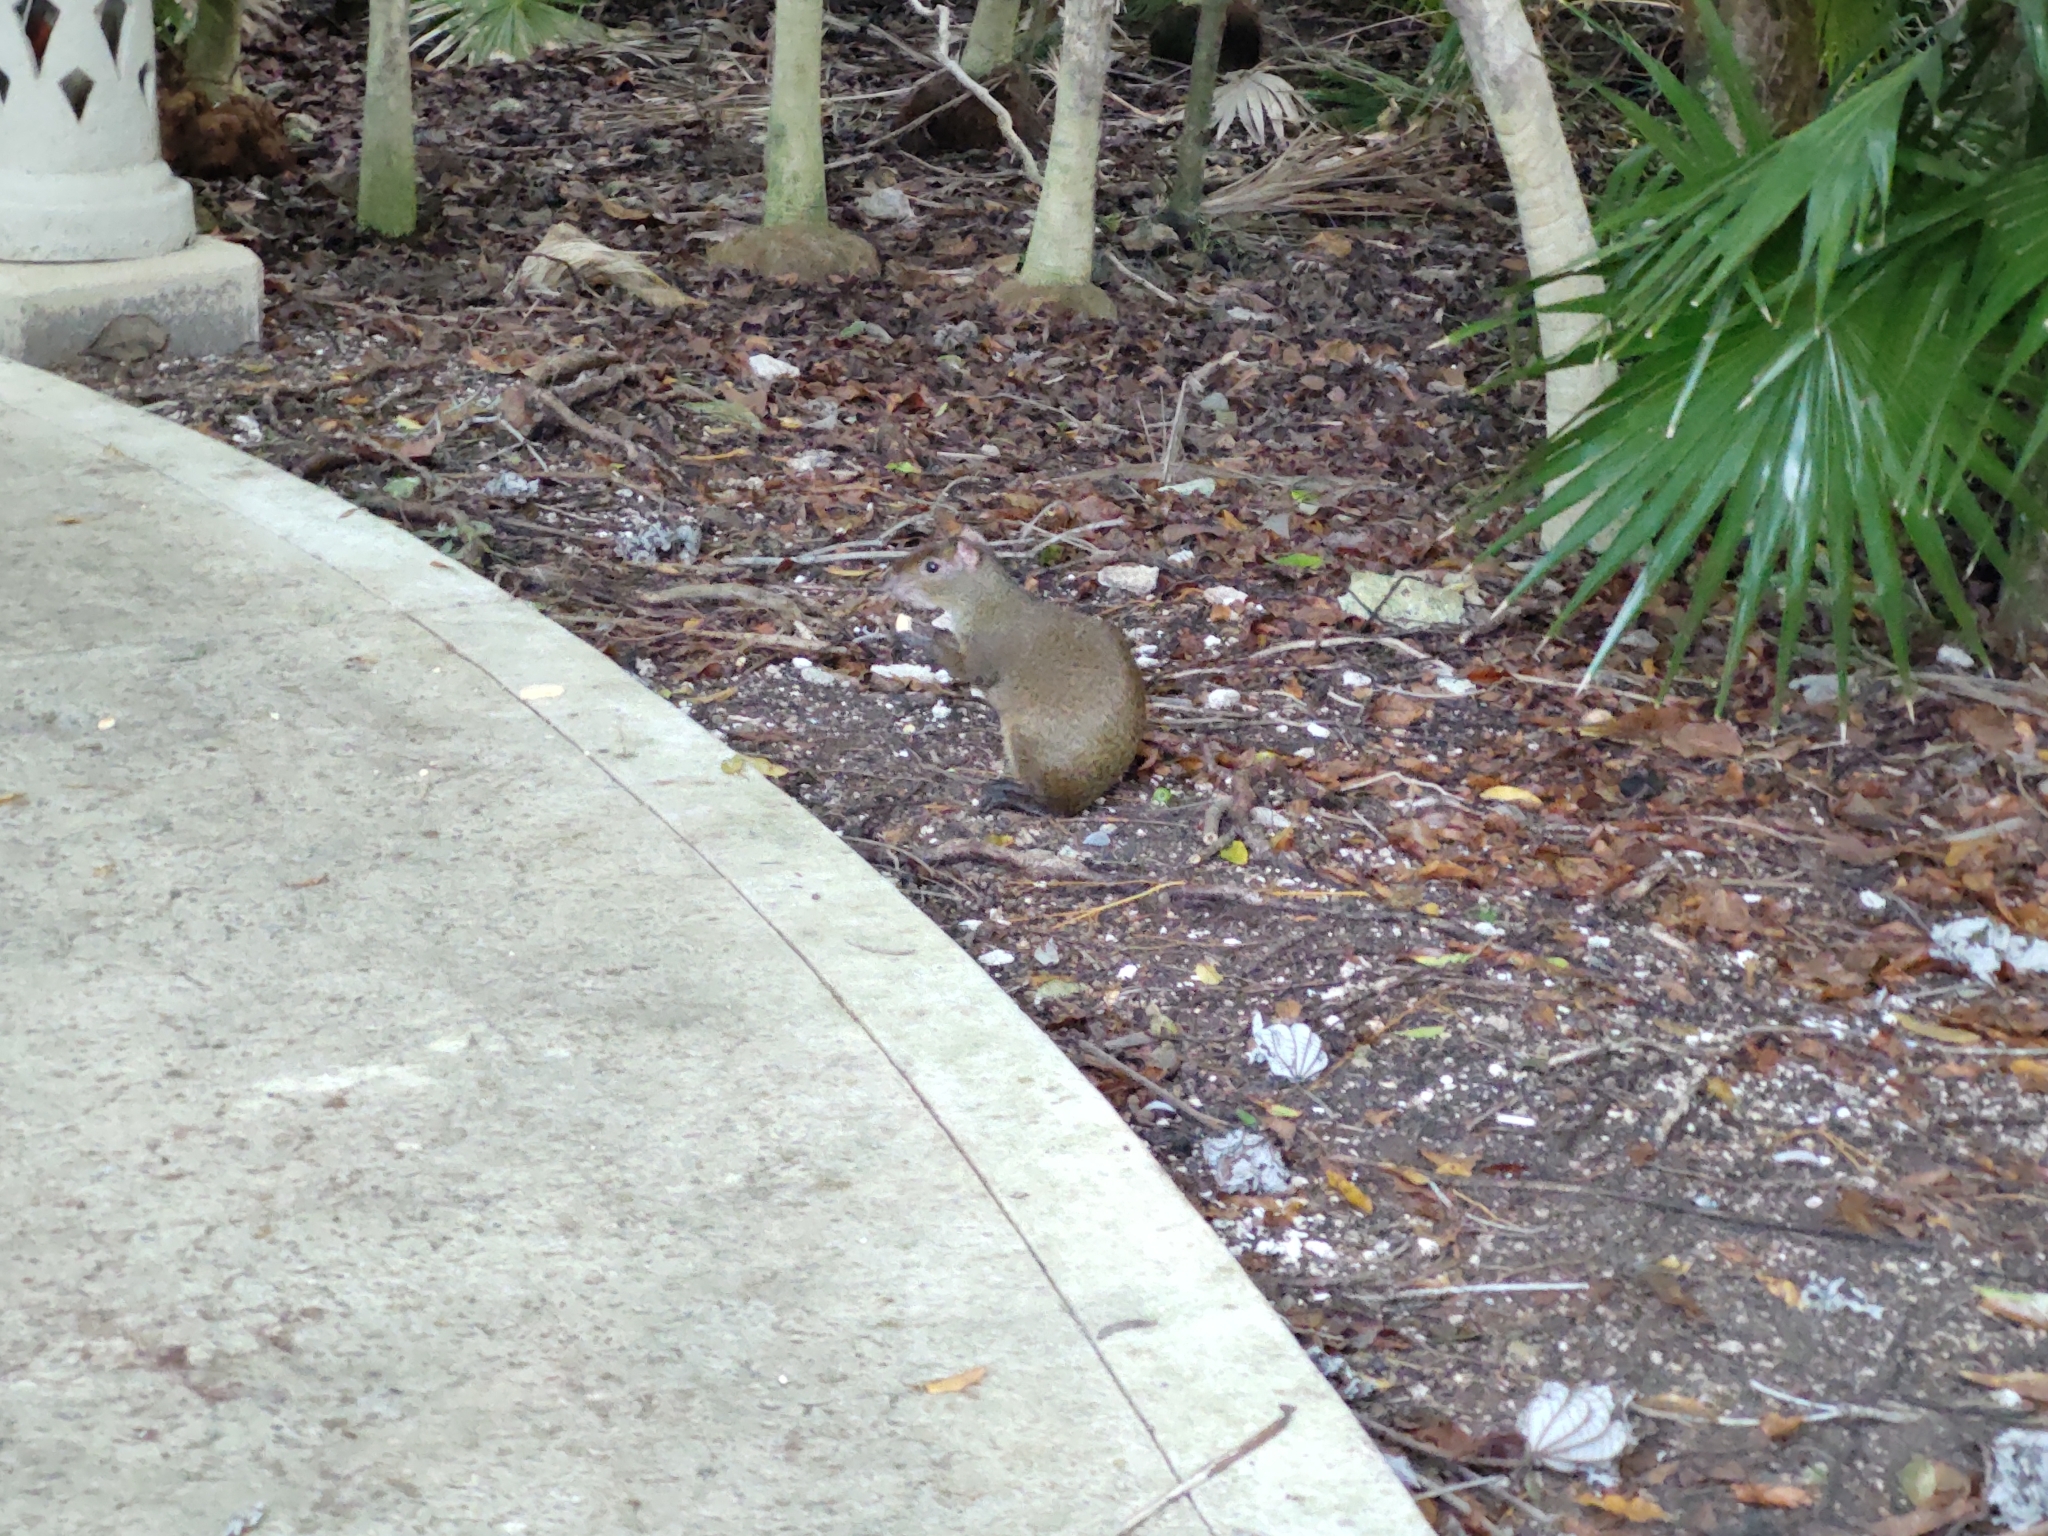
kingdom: Animalia
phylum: Chordata
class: Mammalia
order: Rodentia
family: Dasyproctidae
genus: Dasyprocta
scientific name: Dasyprocta punctata
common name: Central american agouti
